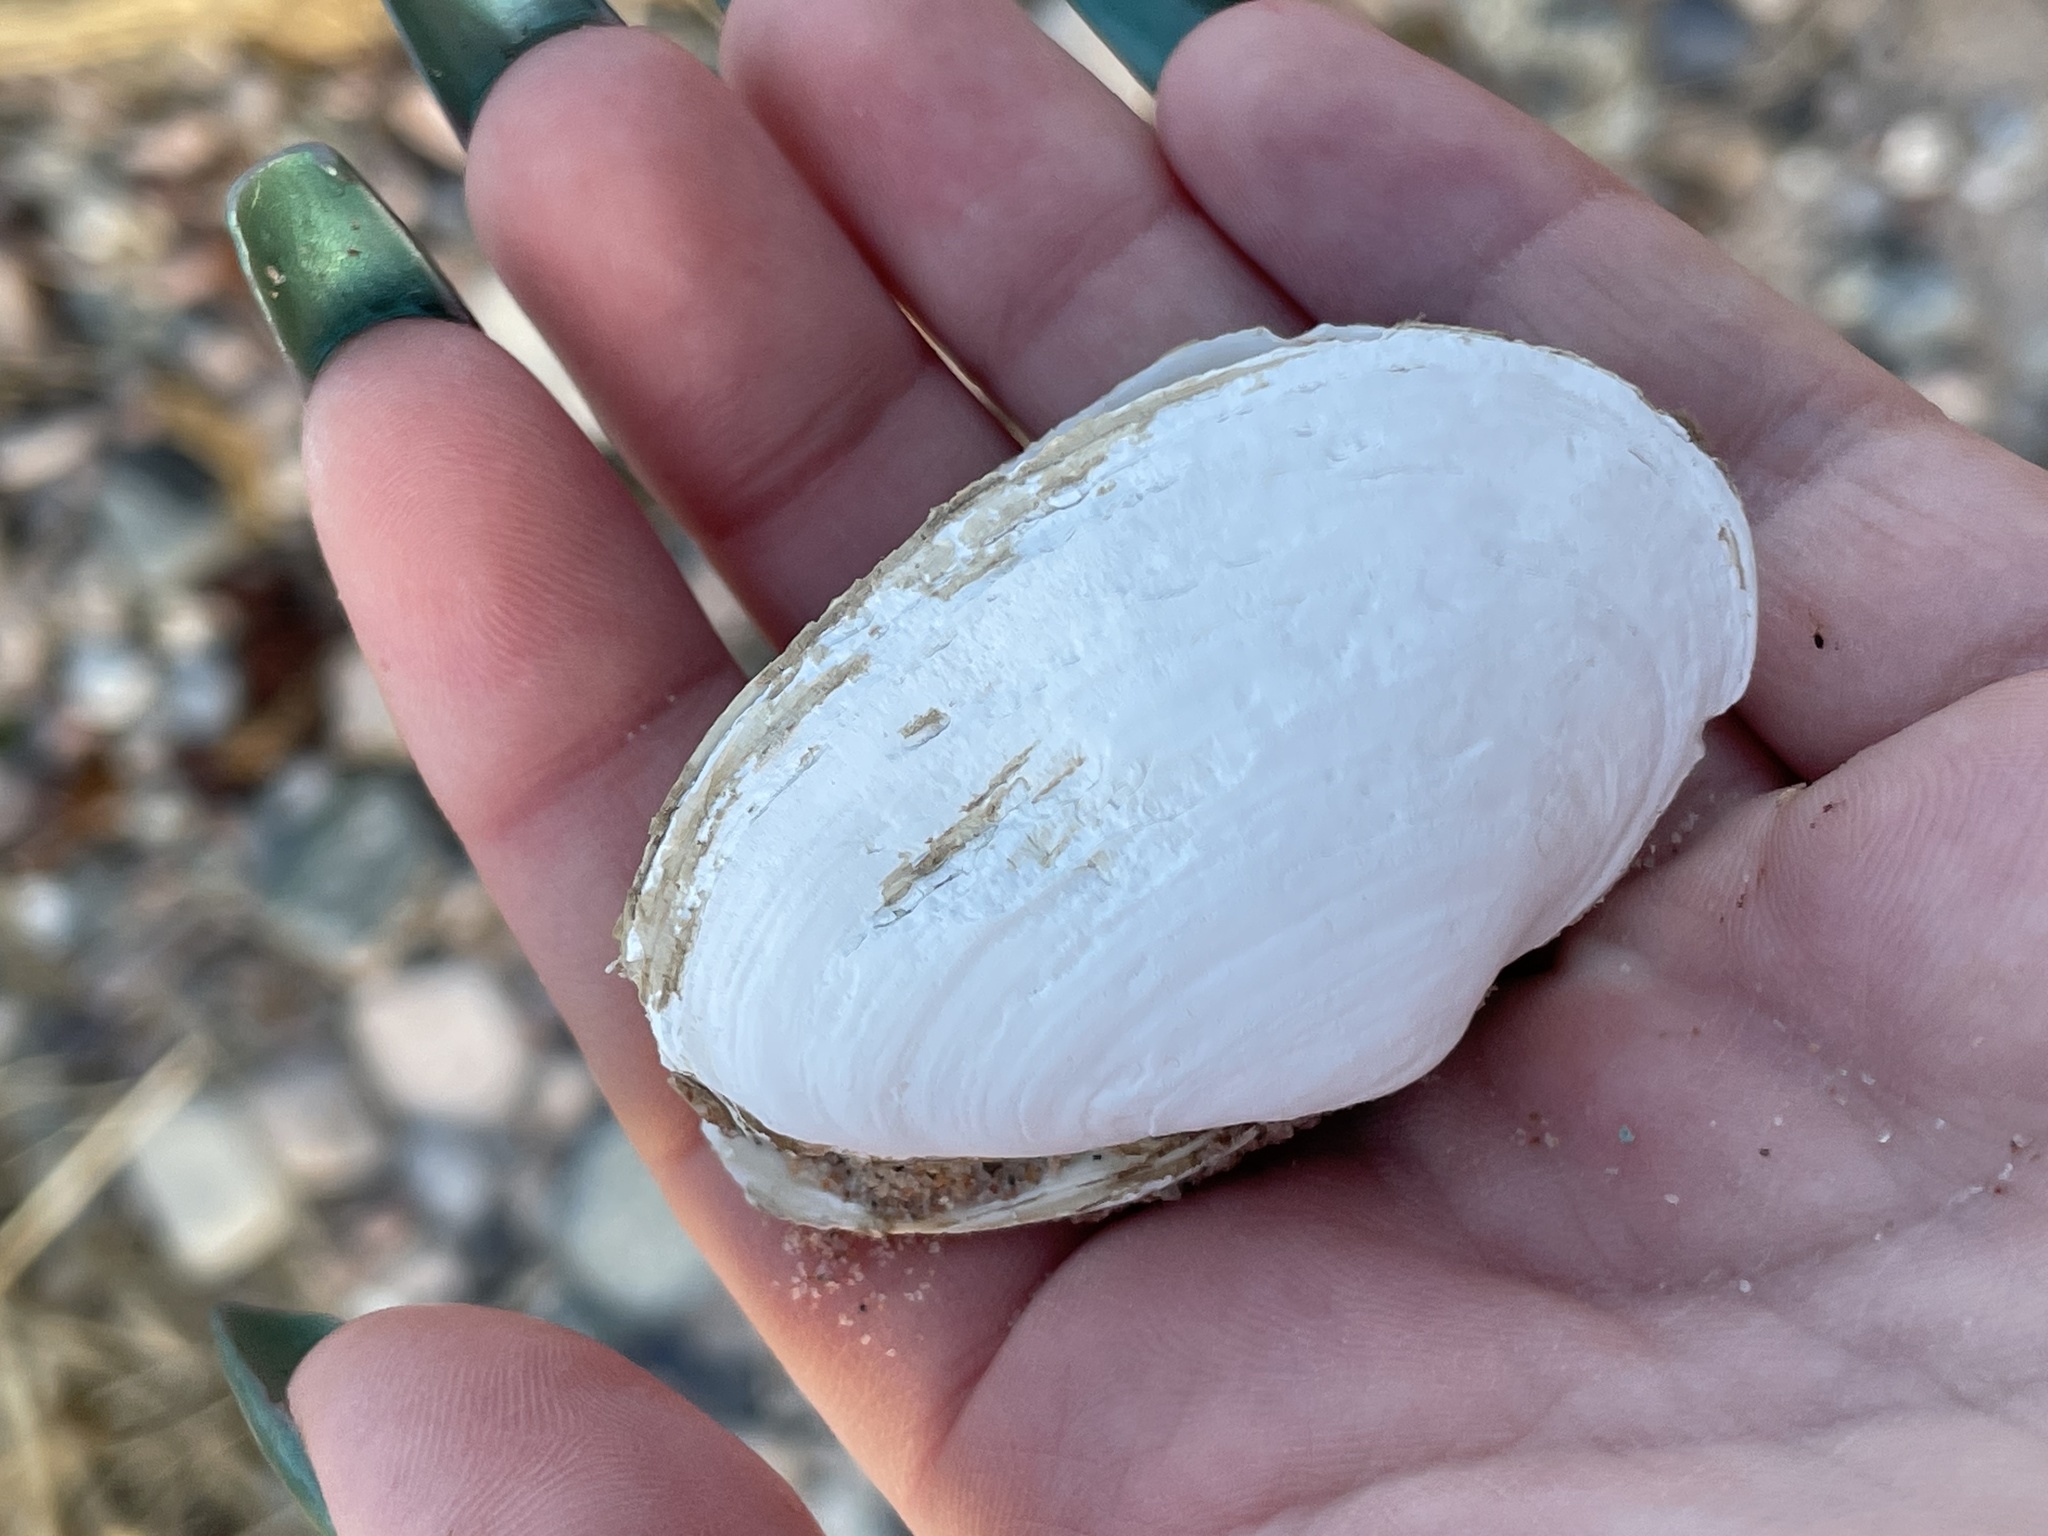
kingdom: Animalia
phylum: Mollusca
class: Bivalvia
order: Myida
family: Myidae
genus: Mya
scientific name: Mya arenaria
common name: Soft-shelled clam
